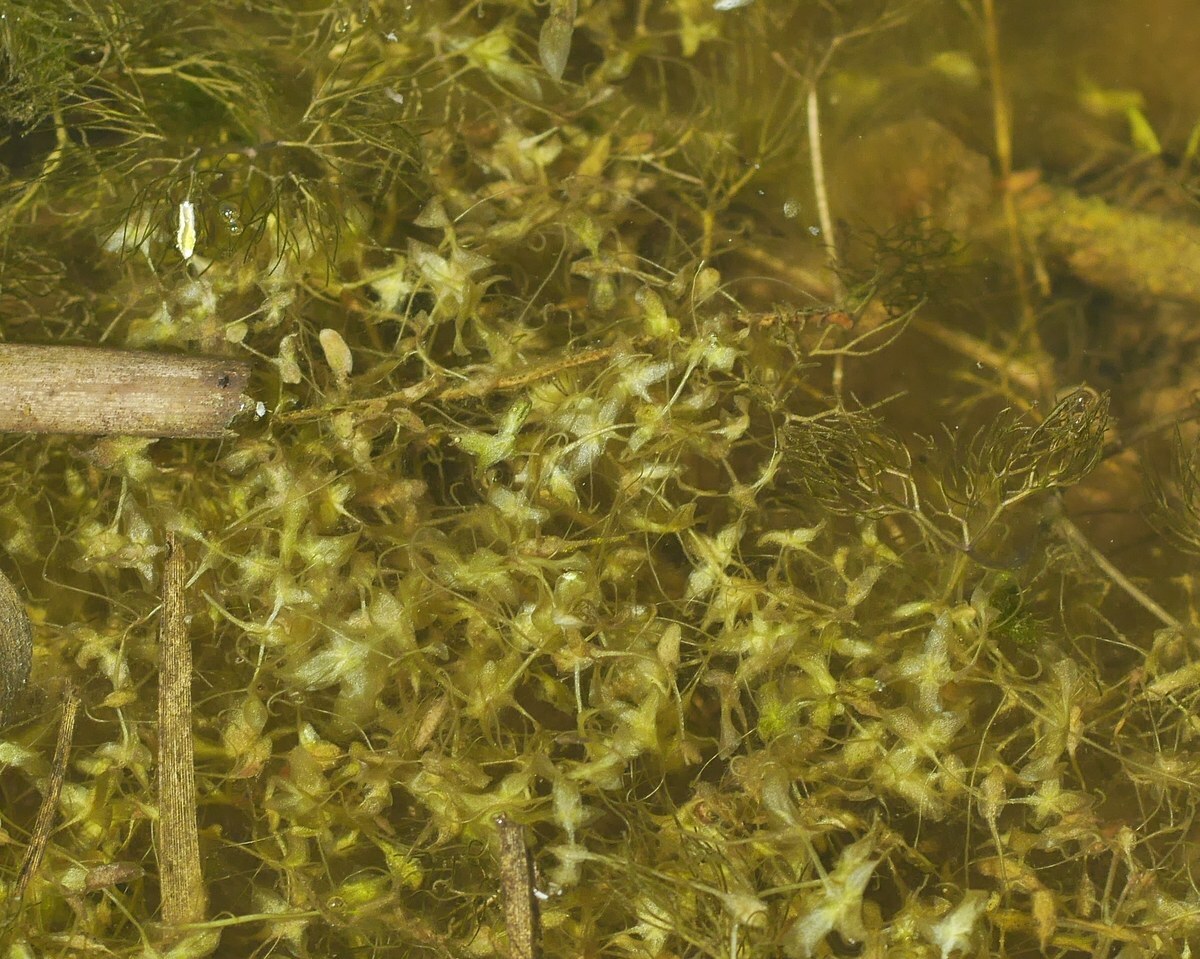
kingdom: Plantae
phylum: Tracheophyta
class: Liliopsida
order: Alismatales
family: Araceae
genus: Lemna
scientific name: Lemna trisulca
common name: Ivy-leaved duckweed
